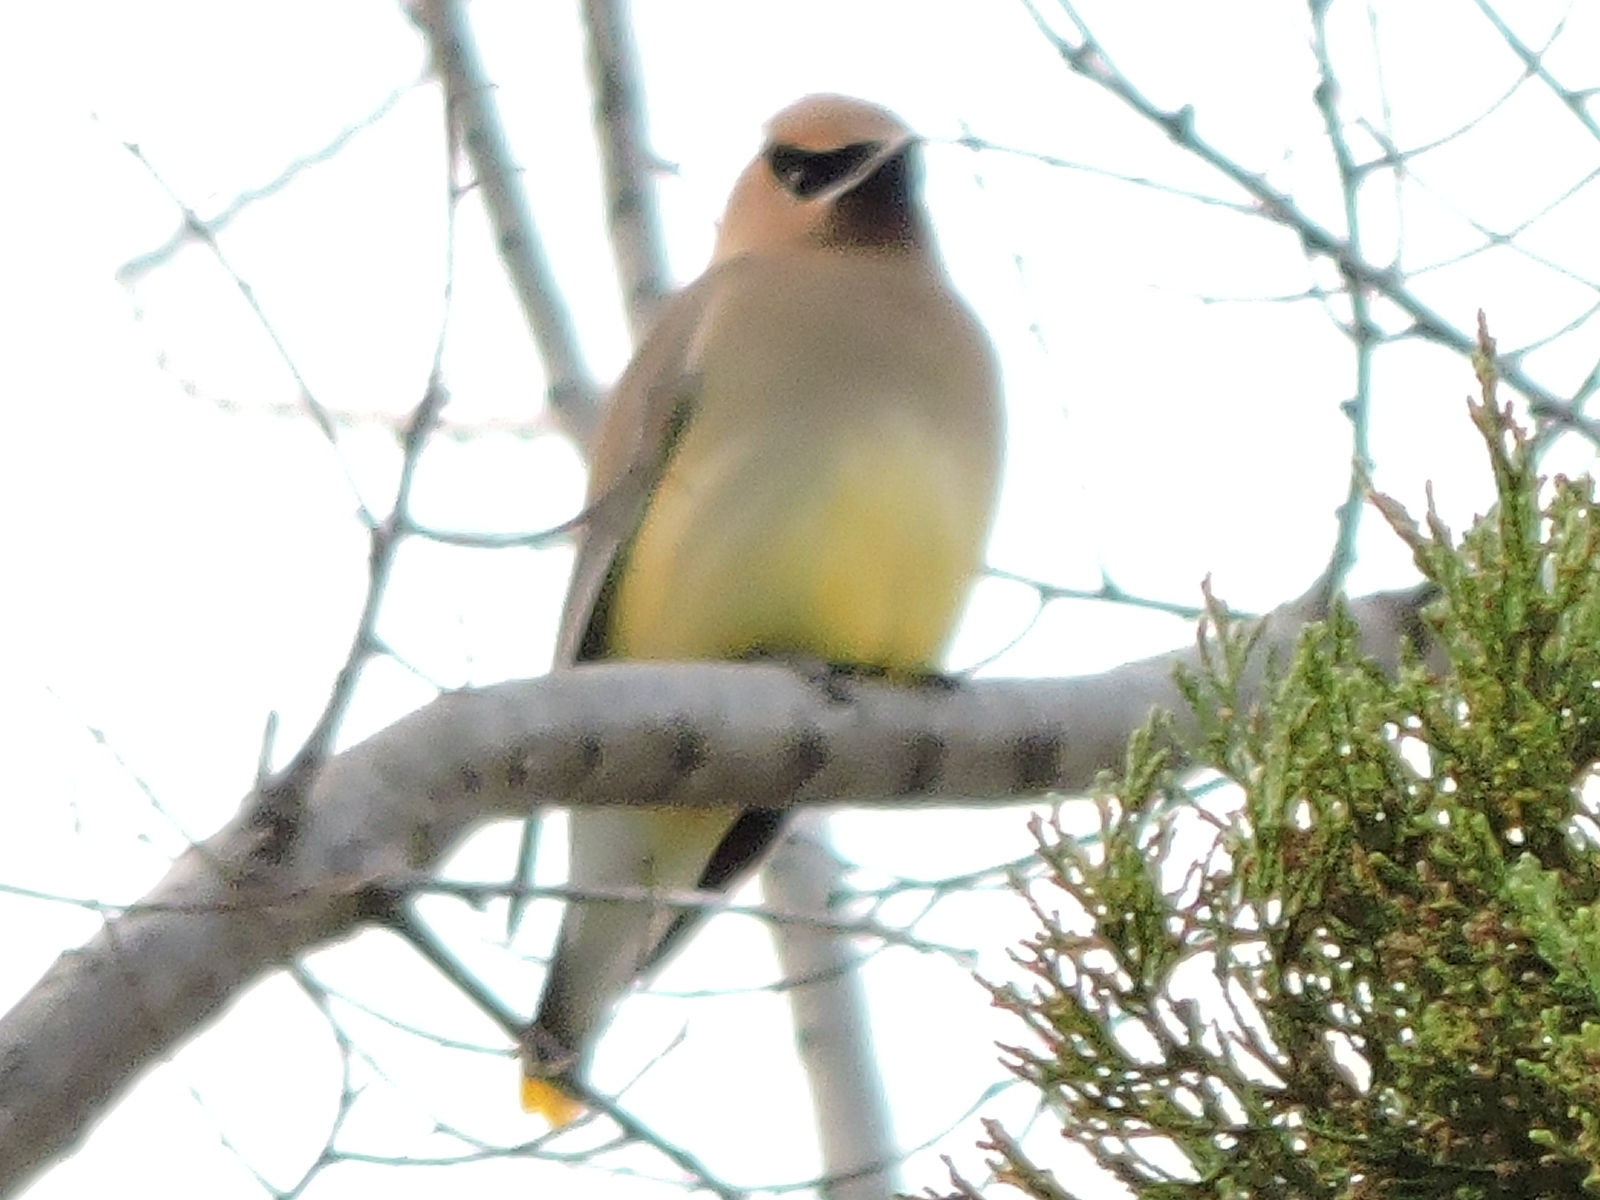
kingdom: Animalia
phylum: Chordata
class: Aves
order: Passeriformes
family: Bombycillidae
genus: Bombycilla
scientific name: Bombycilla cedrorum
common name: Cedar waxwing
